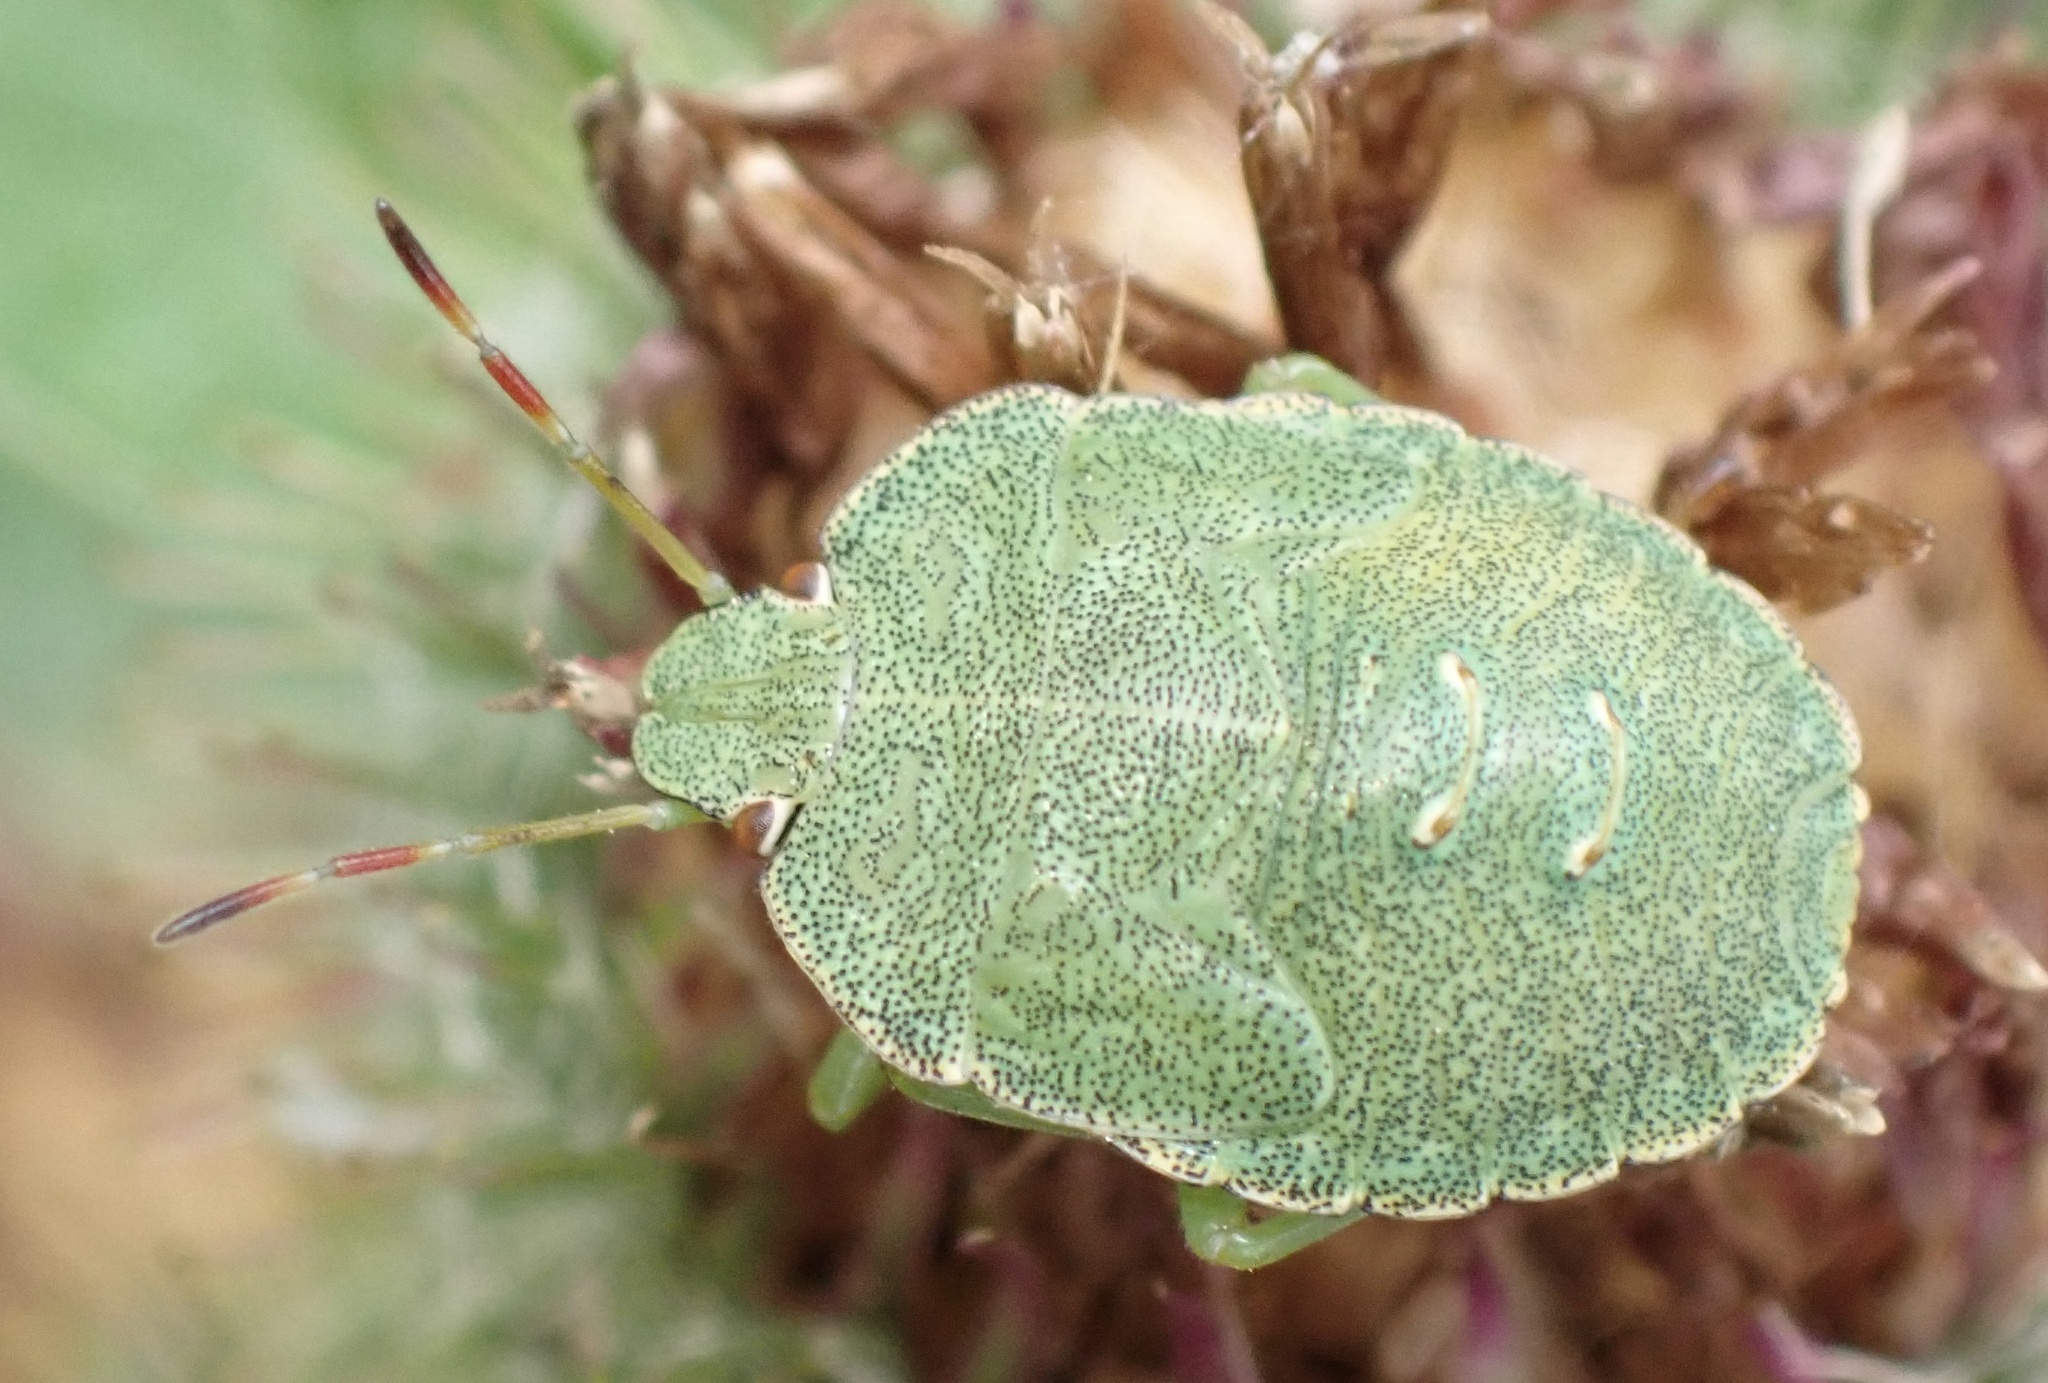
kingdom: Animalia
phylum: Arthropoda
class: Insecta
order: Hemiptera
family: Pentatomidae
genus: Palomena
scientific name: Palomena prasina
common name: Green shieldbug
